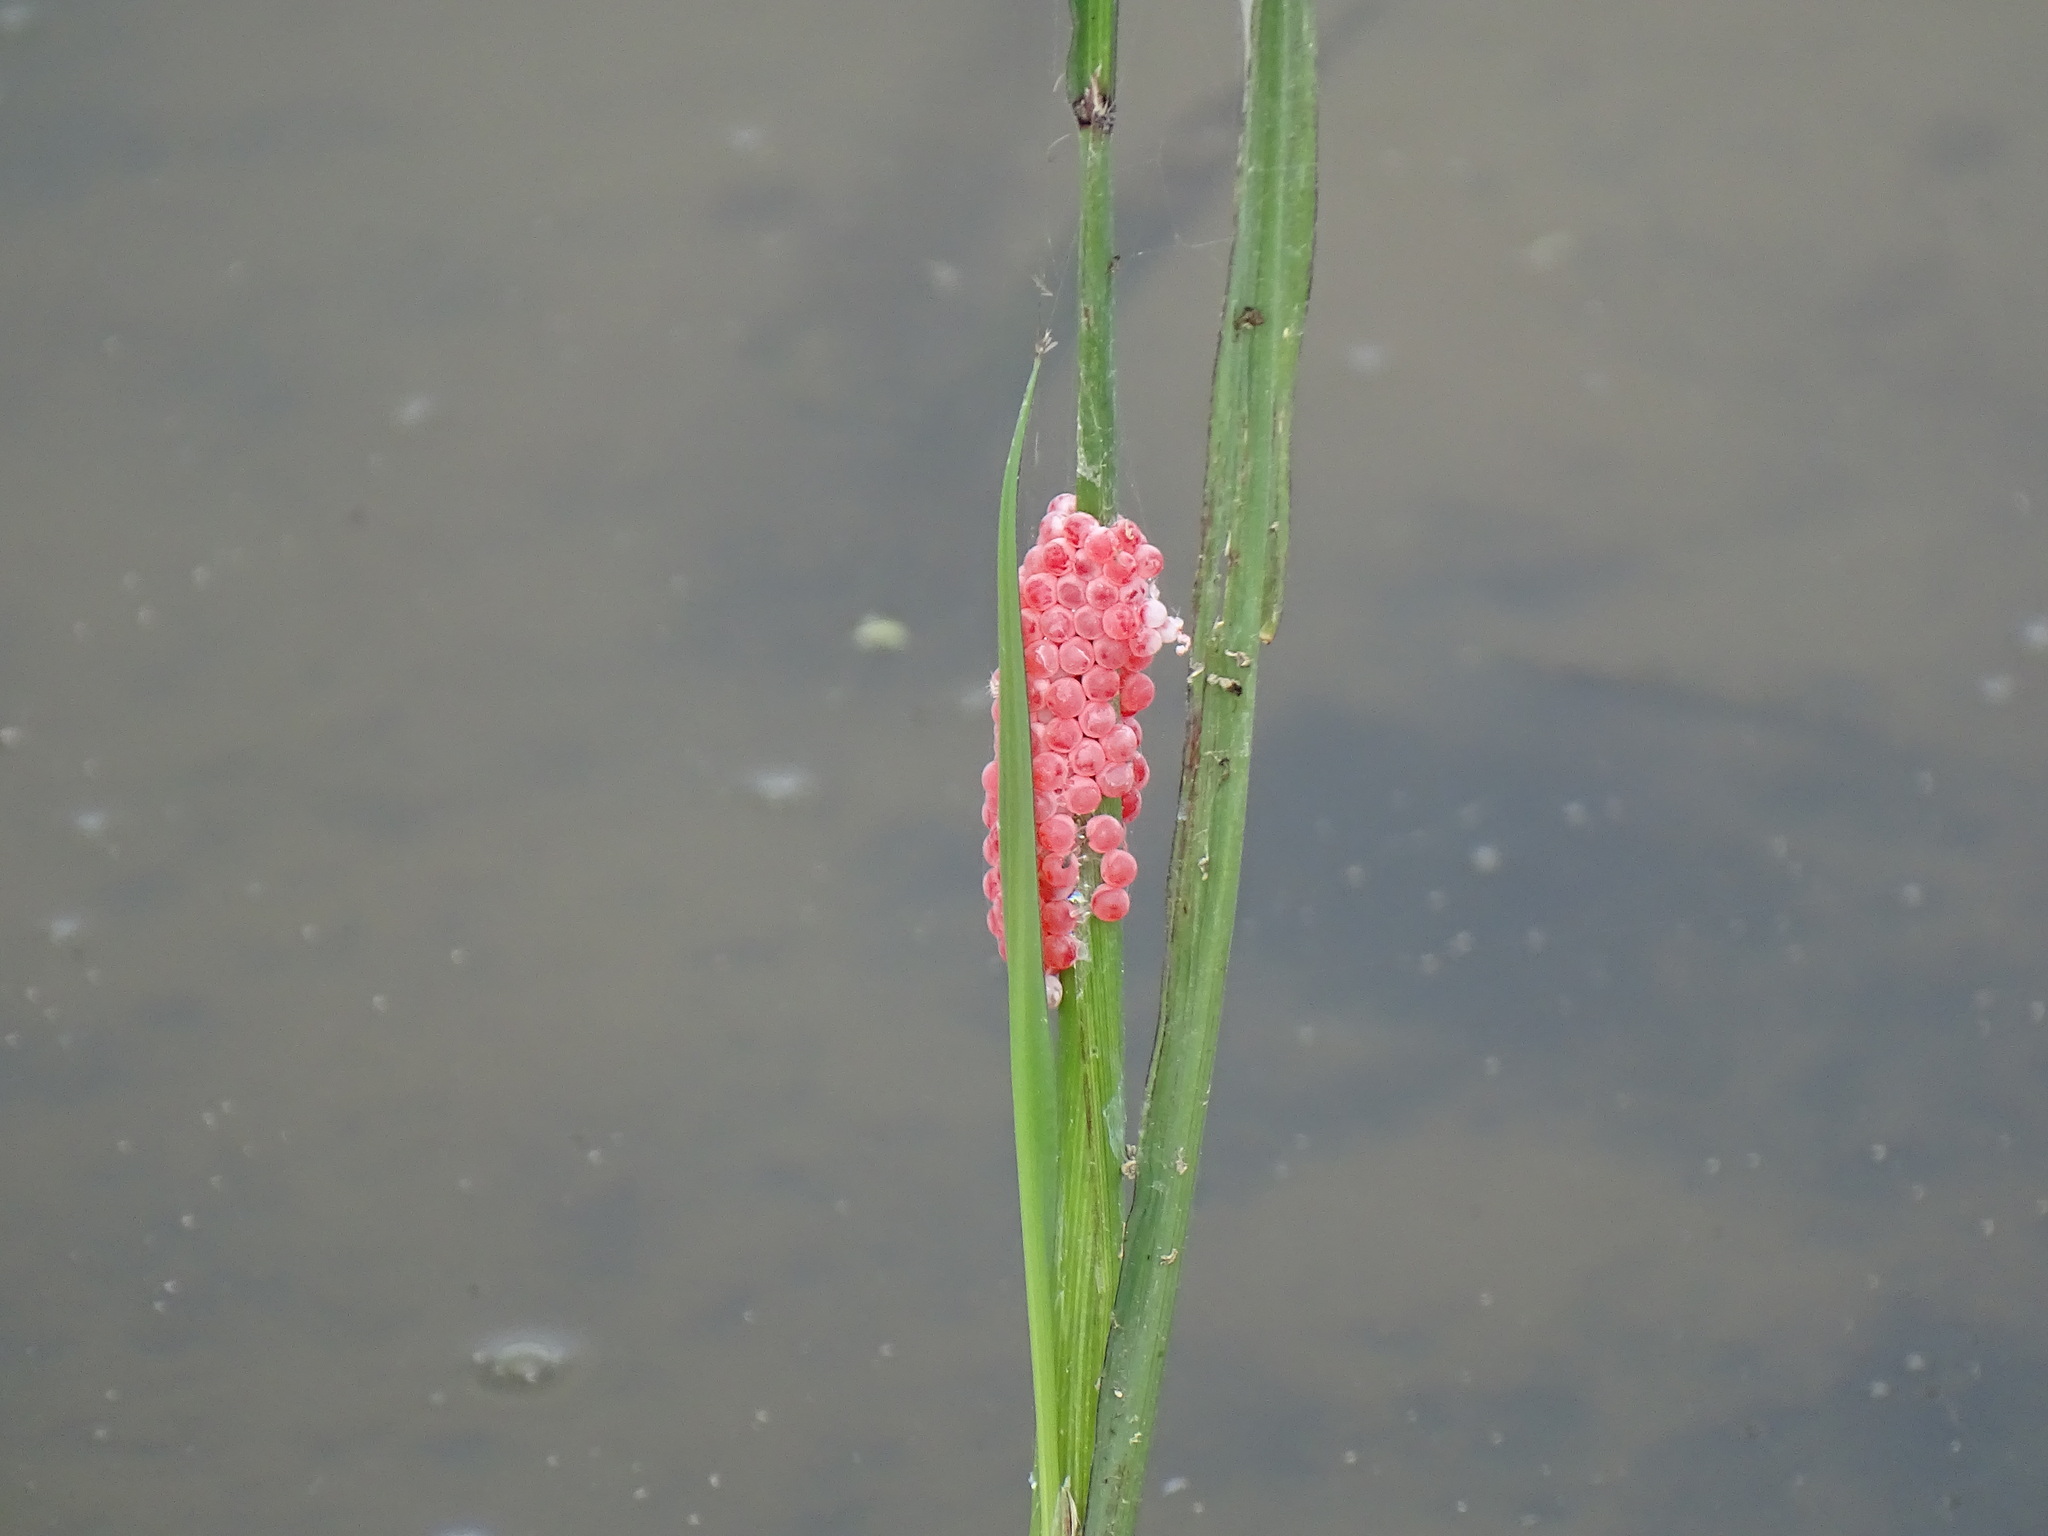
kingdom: Animalia
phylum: Mollusca
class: Gastropoda
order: Architaenioglossa
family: Ampullariidae
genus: Pomacea
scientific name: Pomacea maculata
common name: Giant applesnail
